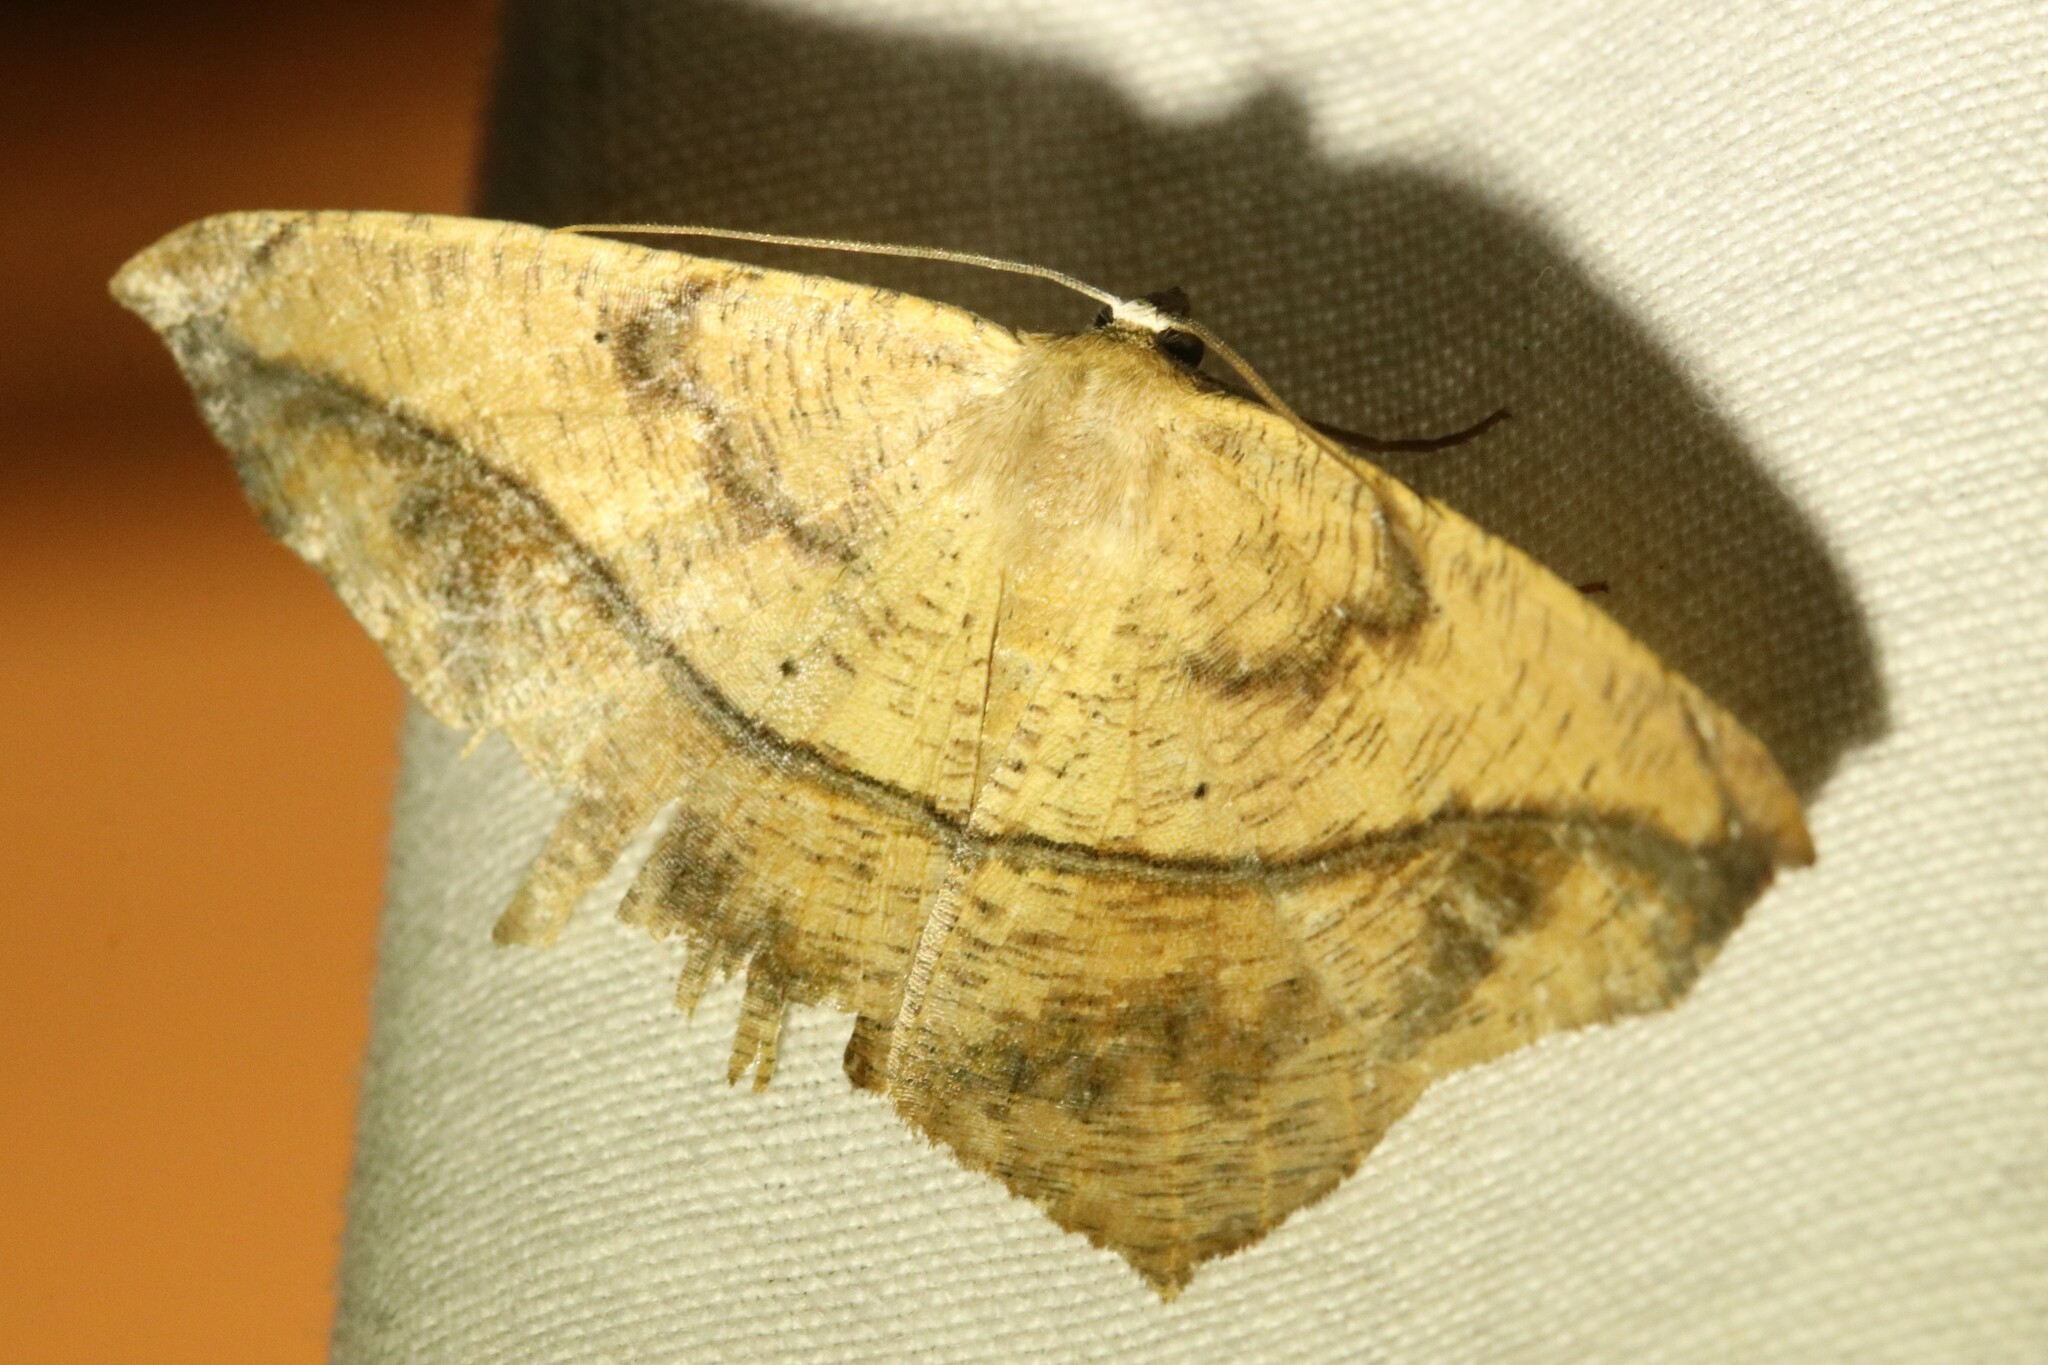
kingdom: Animalia
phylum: Arthropoda
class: Insecta
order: Lepidoptera
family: Geometridae
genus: Prochoerodes
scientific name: Prochoerodes lineola
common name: Large maple spanworm
